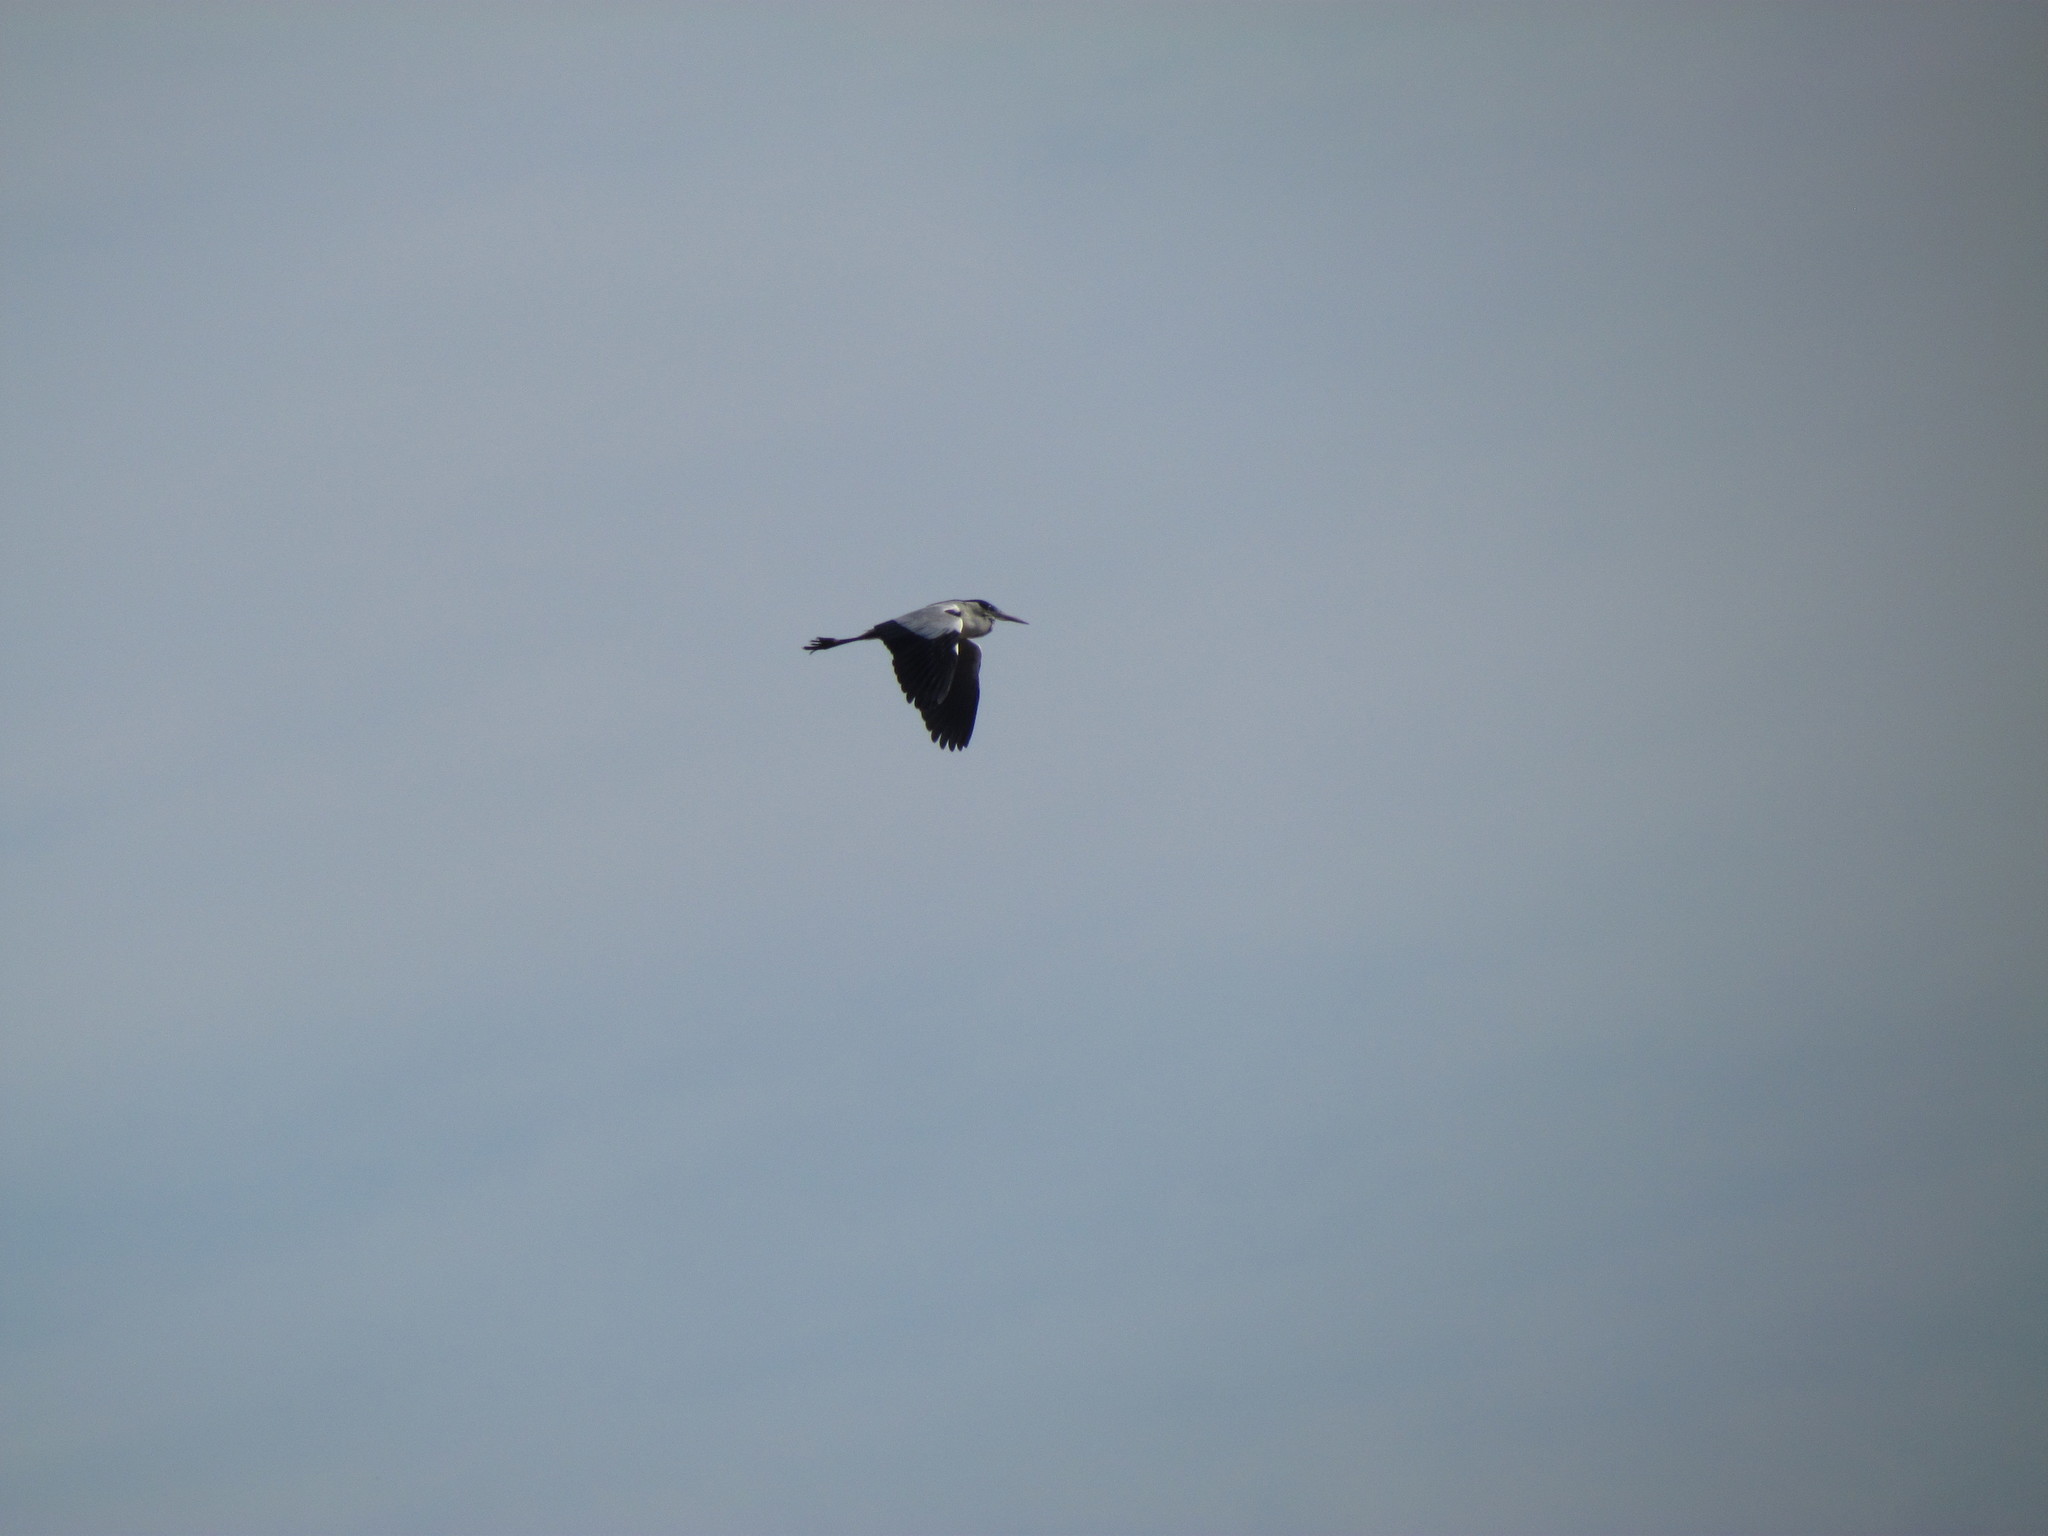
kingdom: Animalia
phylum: Chordata
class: Aves
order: Pelecaniformes
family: Ardeidae
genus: Ardea
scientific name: Ardea cocoi
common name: Cocoi heron
